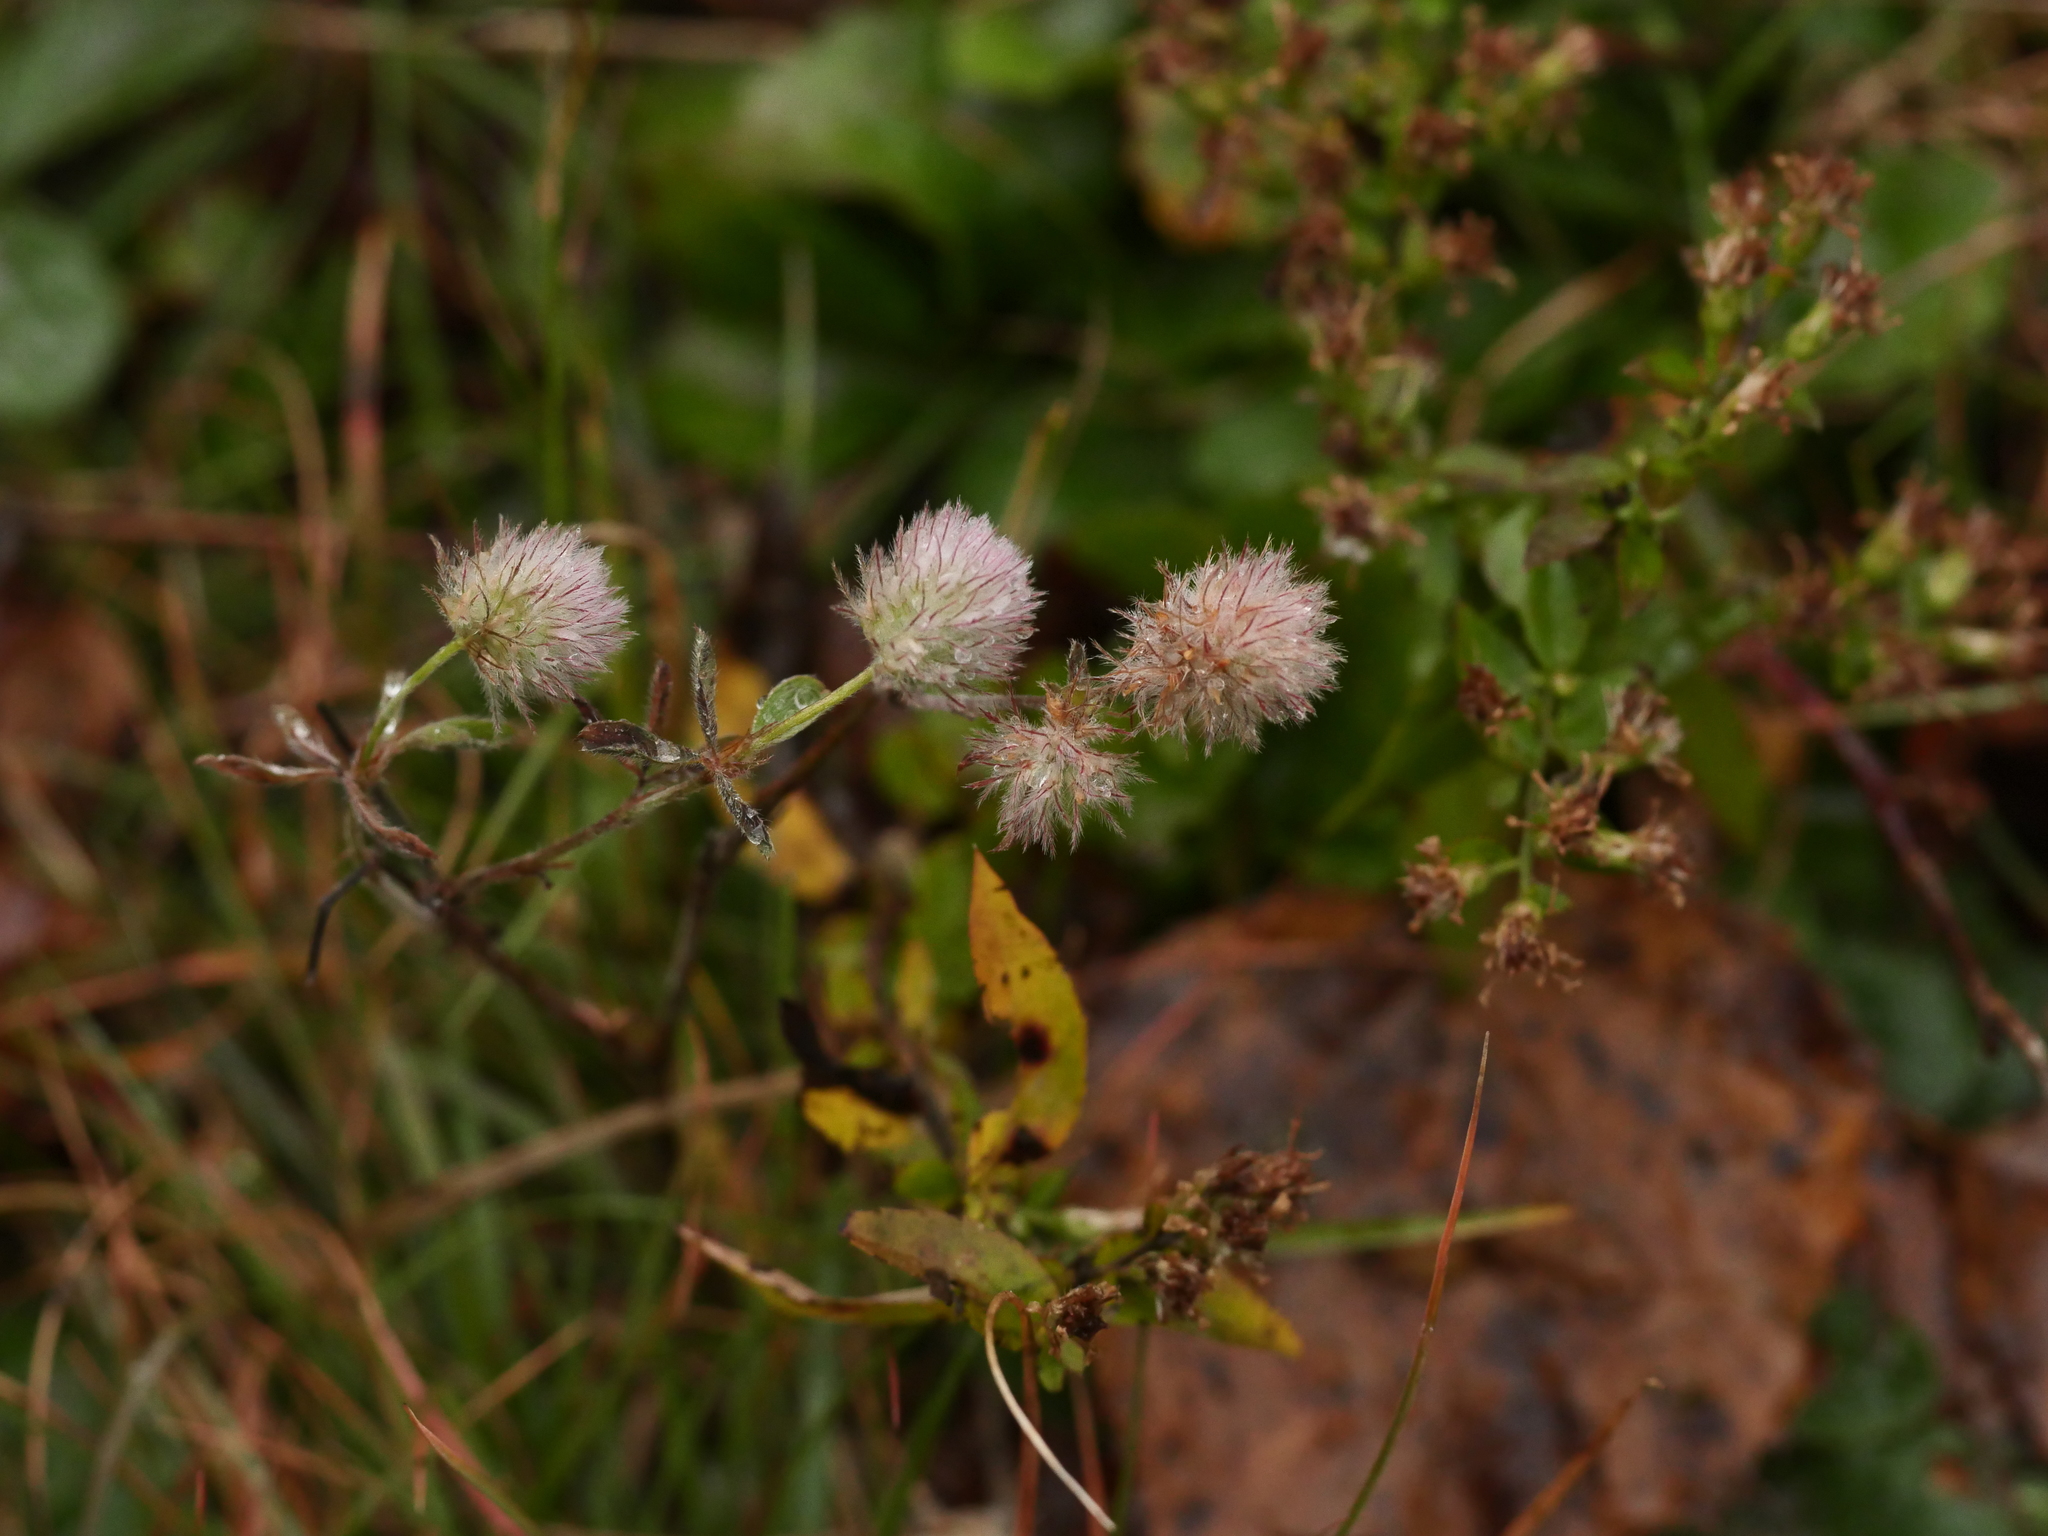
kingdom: Plantae
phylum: Tracheophyta
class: Magnoliopsida
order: Fabales
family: Fabaceae
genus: Trifolium
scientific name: Trifolium arvense
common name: Hare's-foot clover
